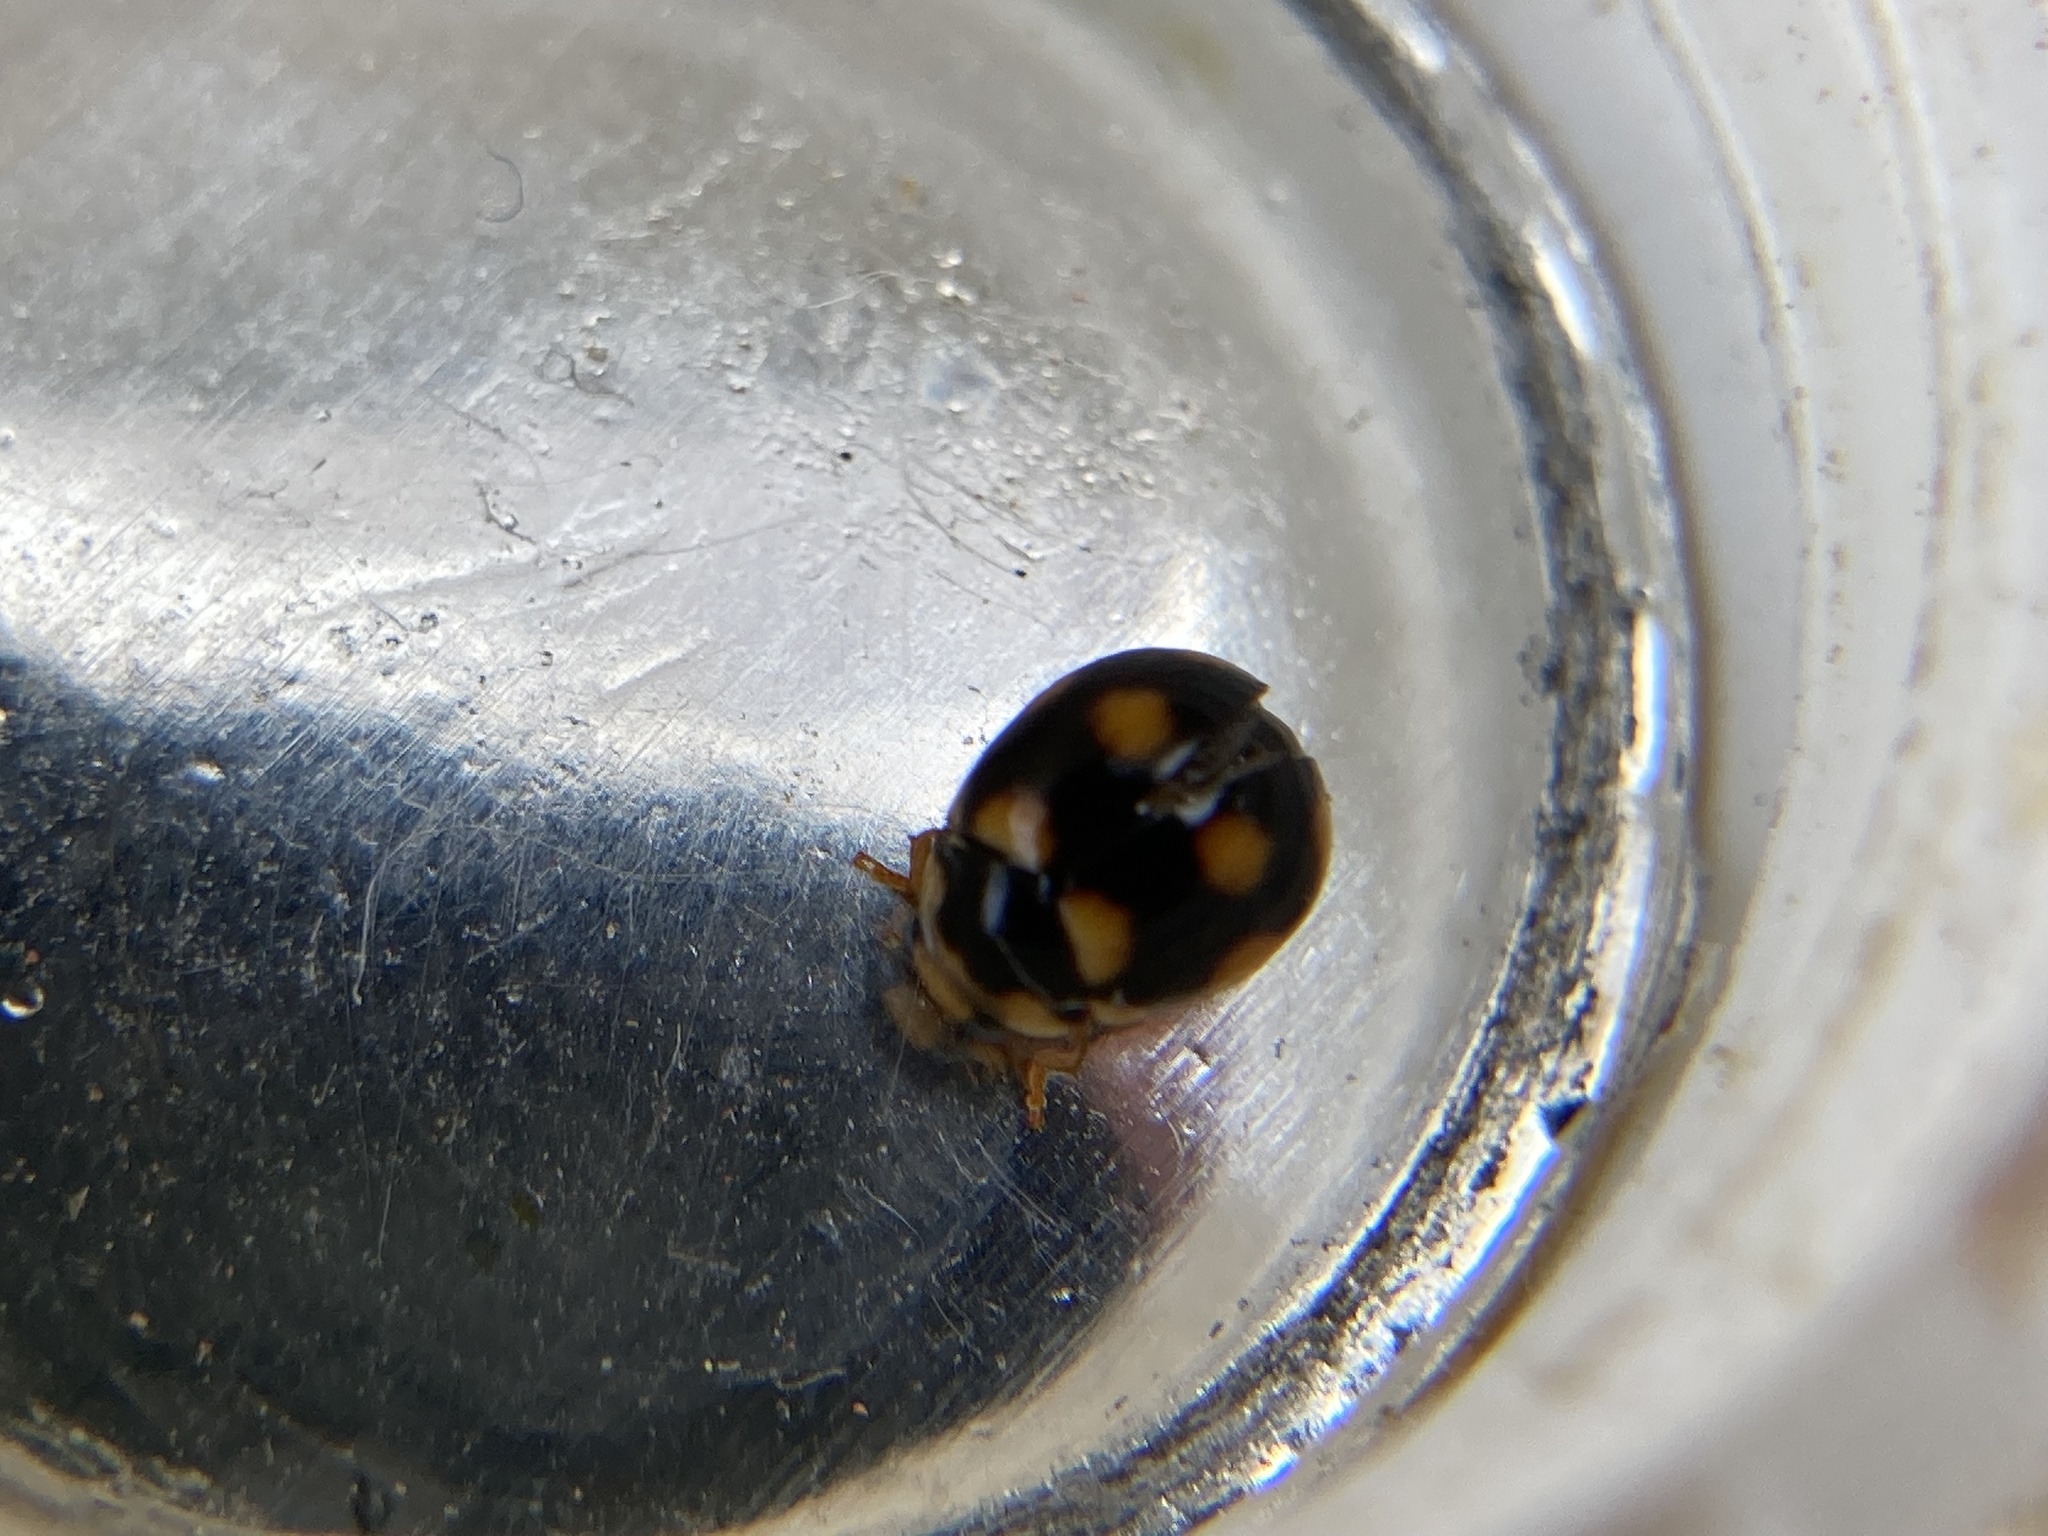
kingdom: Animalia
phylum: Arthropoda
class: Insecta
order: Coleoptera
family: Coccinellidae
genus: Brachiacantha
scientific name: Brachiacantha ursina
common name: Ursine spurleg lady beetle
